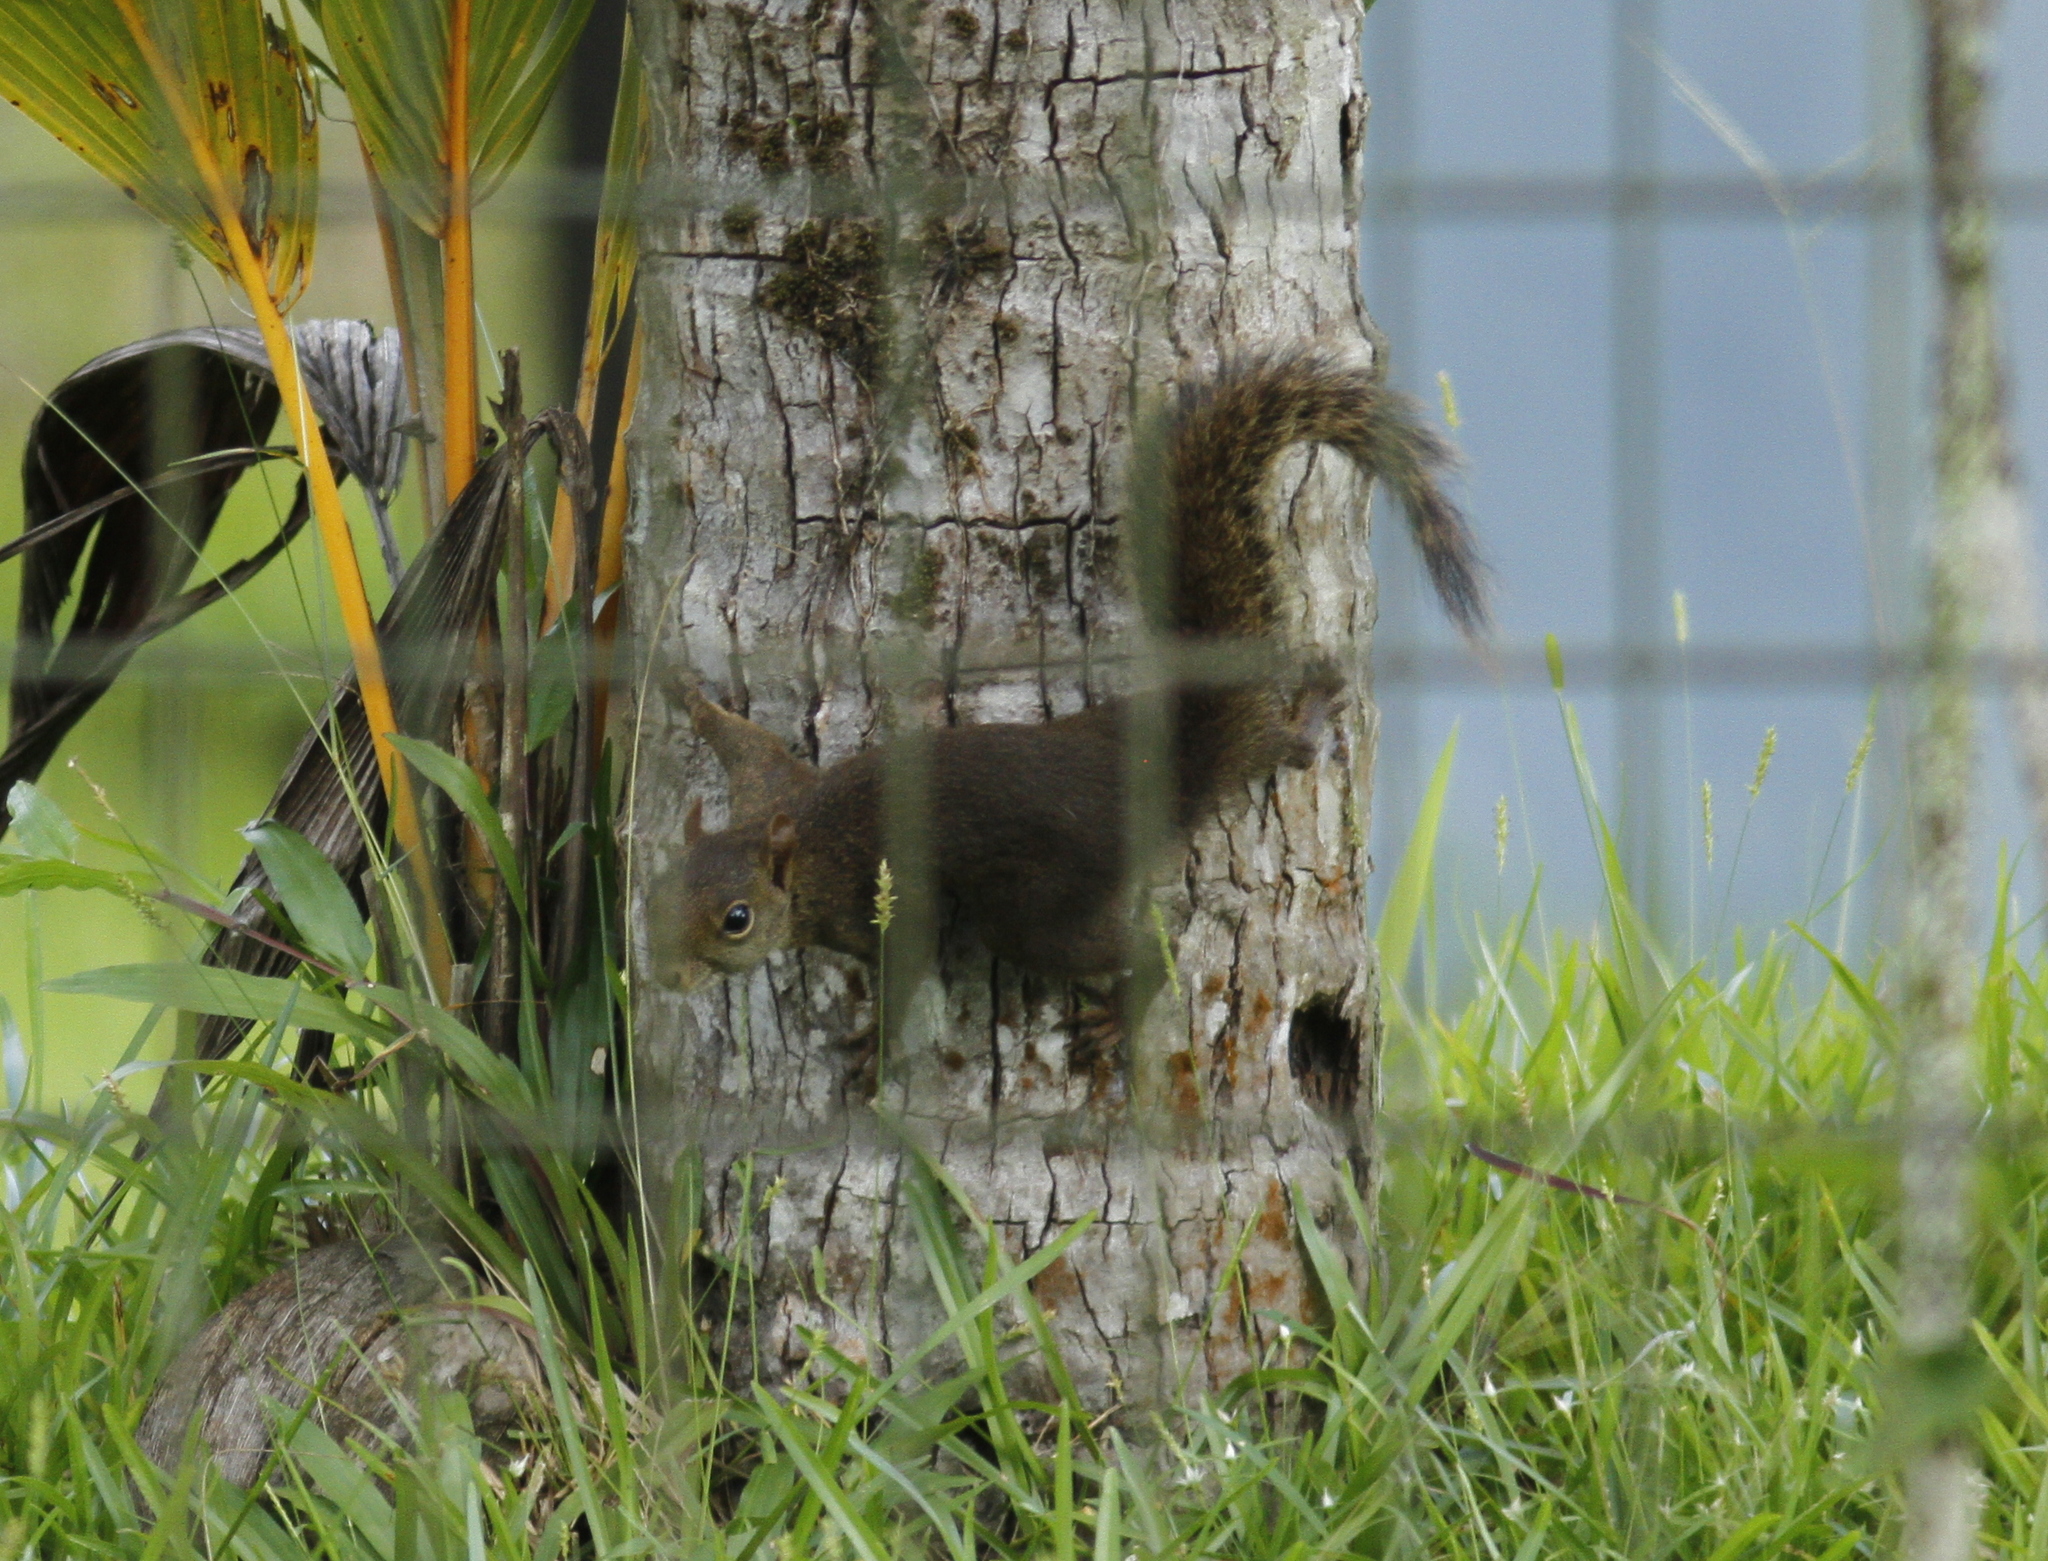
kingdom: Animalia
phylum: Chordata
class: Mammalia
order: Rodentia
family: Sciuridae
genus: Sciurus
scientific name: Sciurus aestuans
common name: Guianan squirrel
